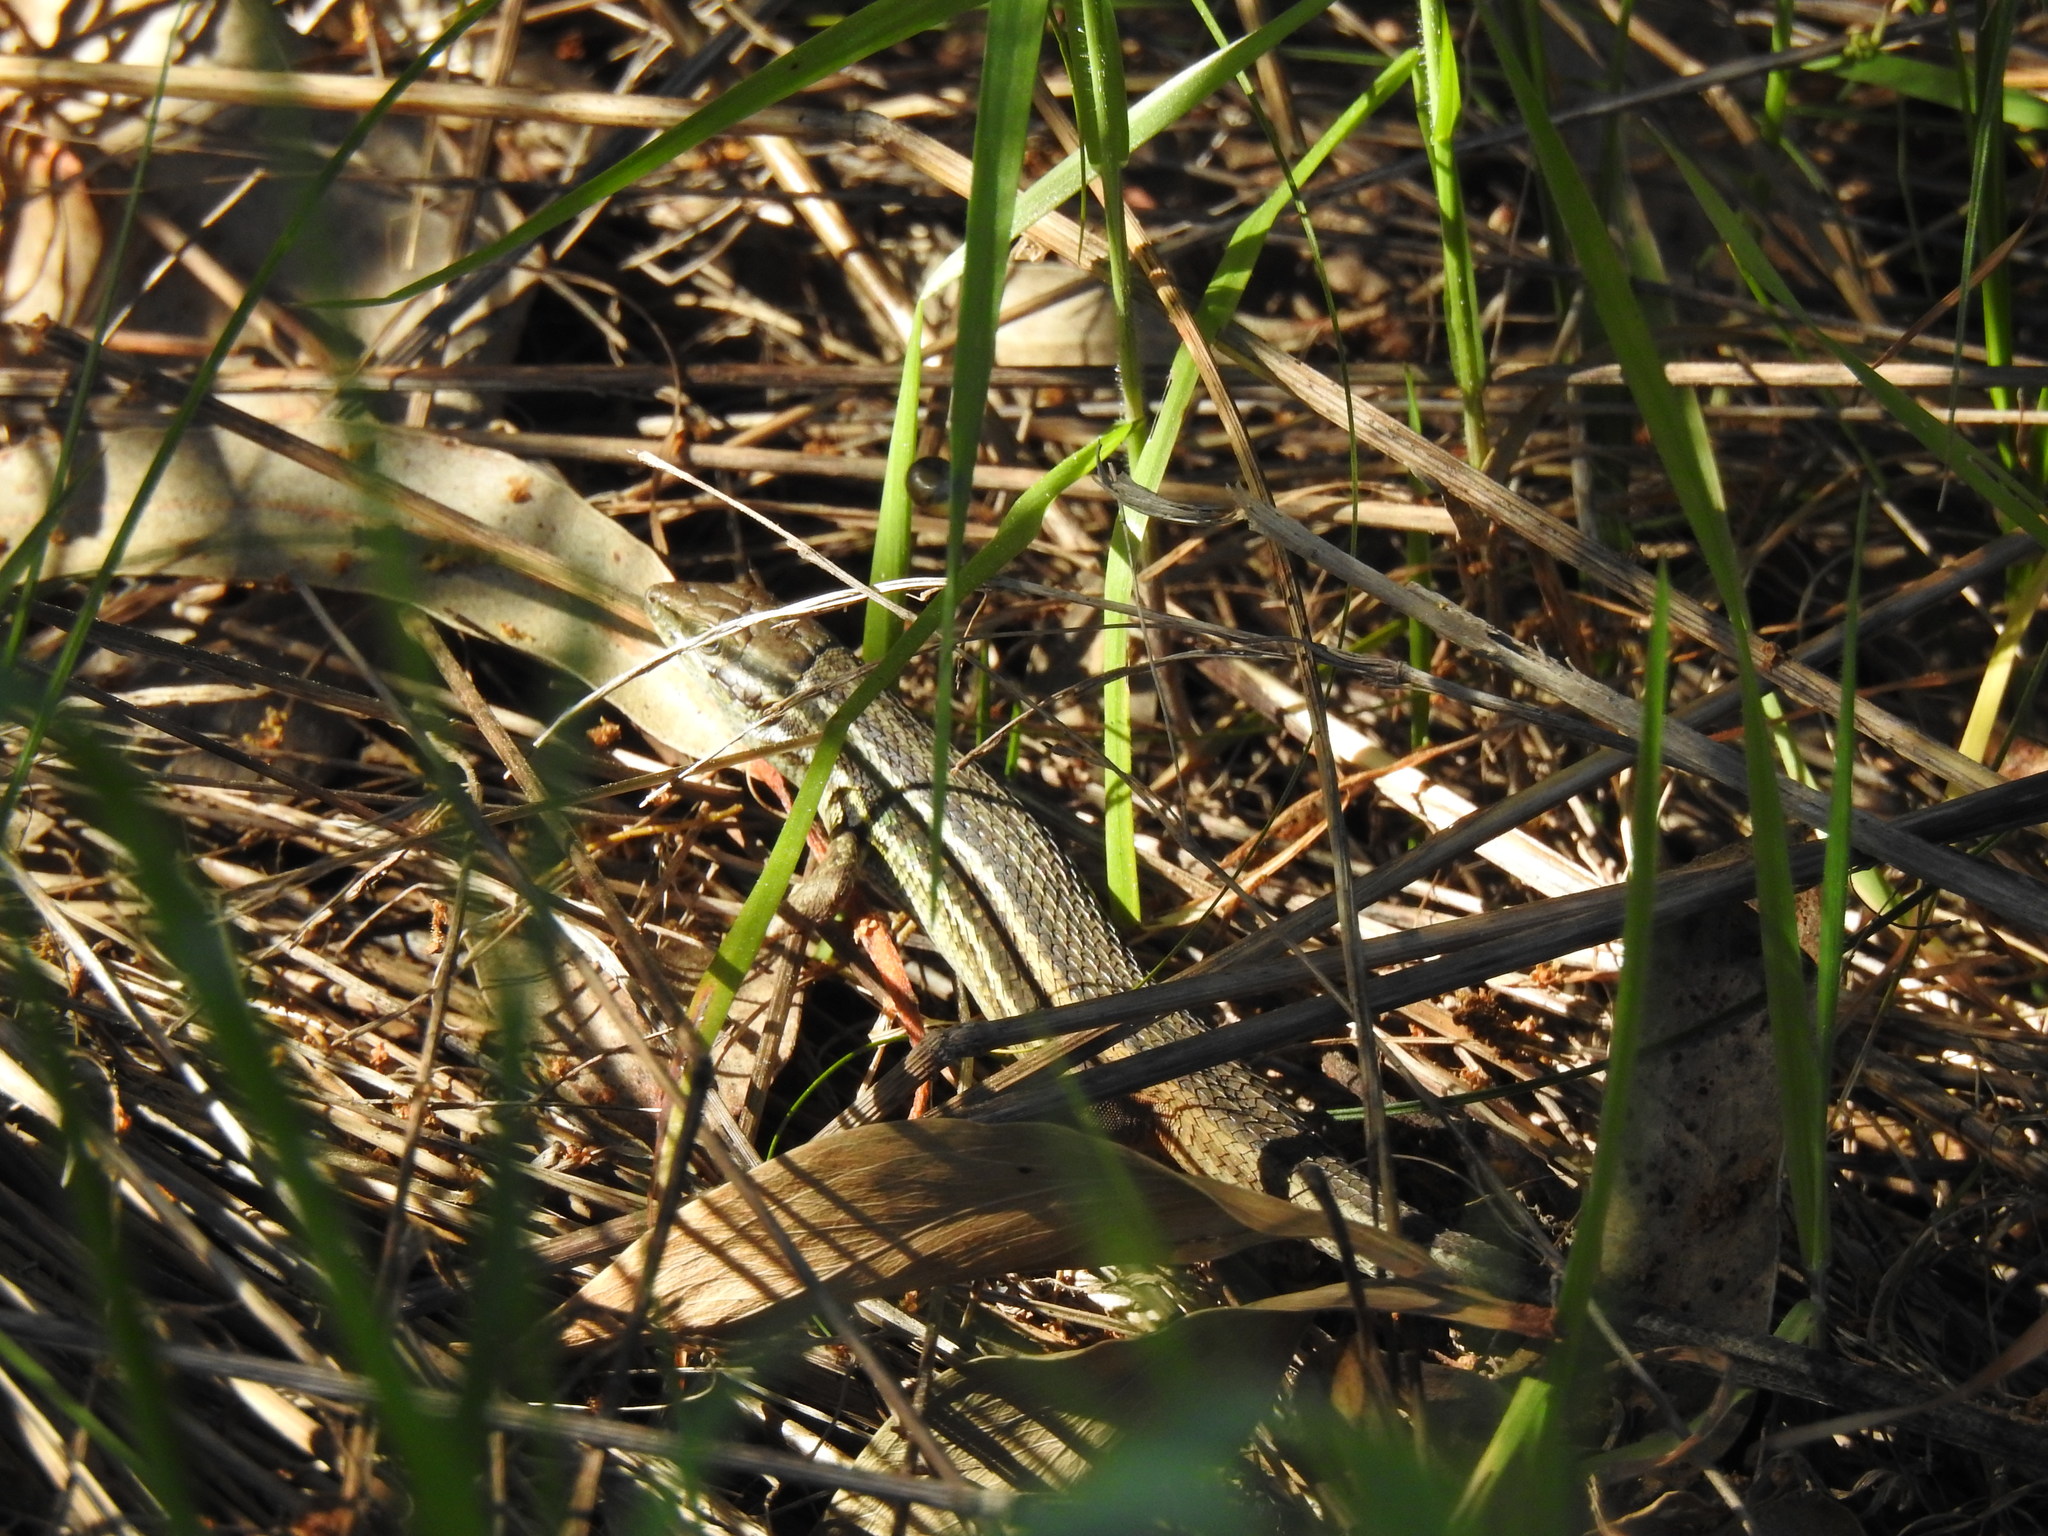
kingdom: Animalia
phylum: Chordata
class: Squamata
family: Lacertidae
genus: Psammodromus
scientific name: Psammodromus algirus
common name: Algerian psammodromus
